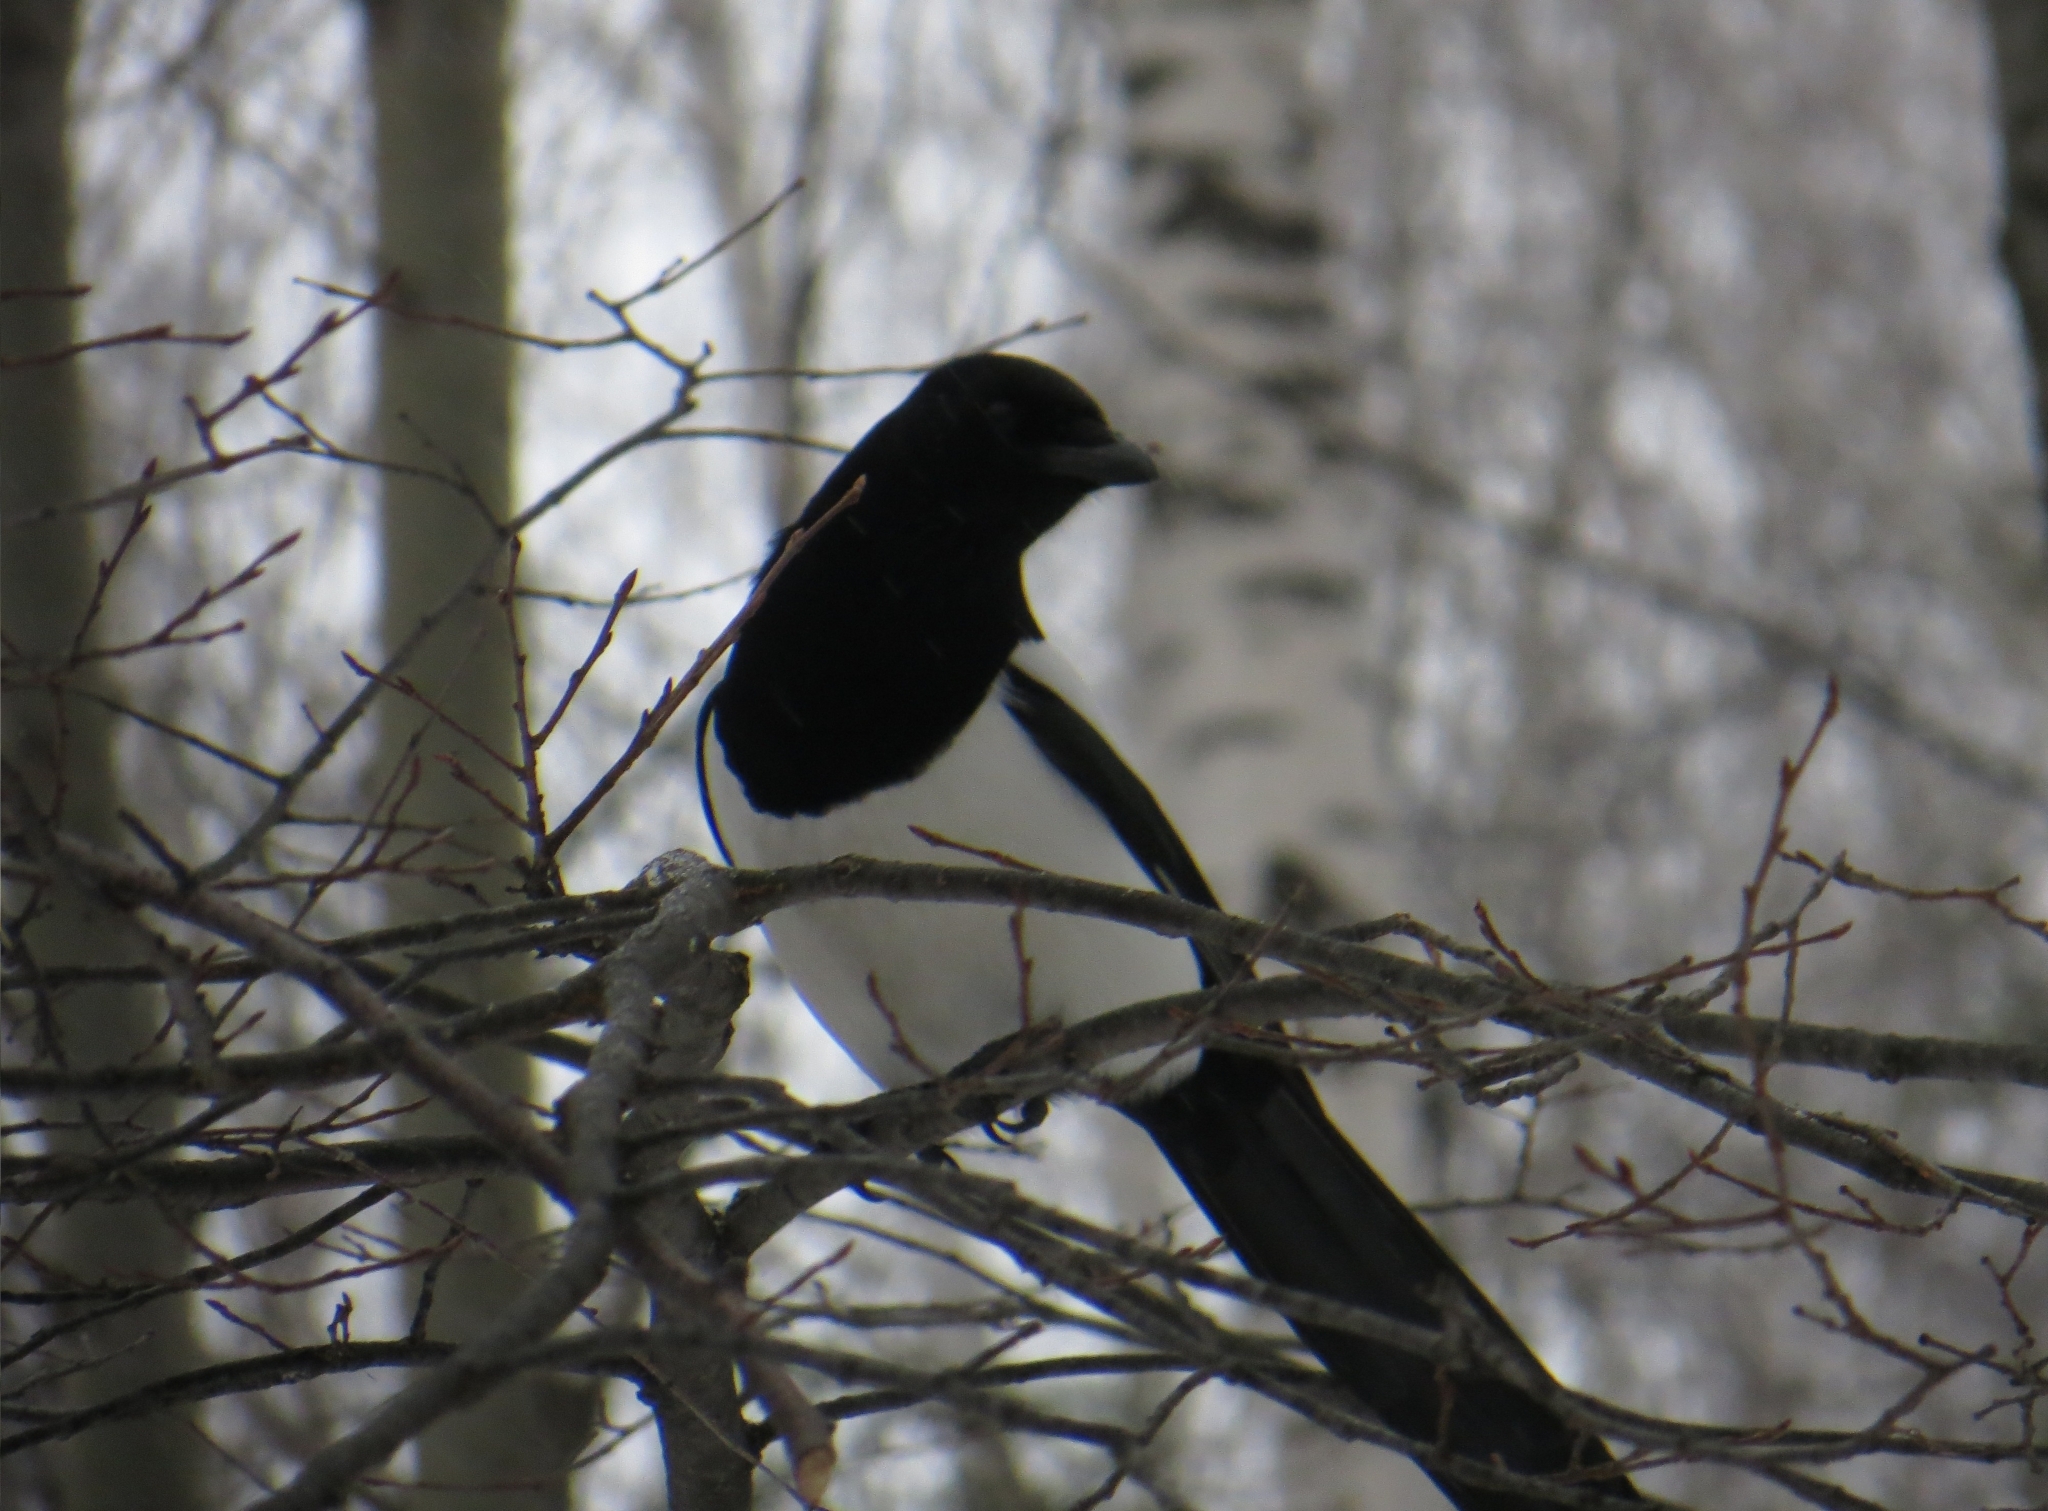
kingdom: Animalia
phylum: Chordata
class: Aves
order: Passeriformes
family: Corvidae
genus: Pica
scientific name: Pica pica
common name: Eurasian magpie
